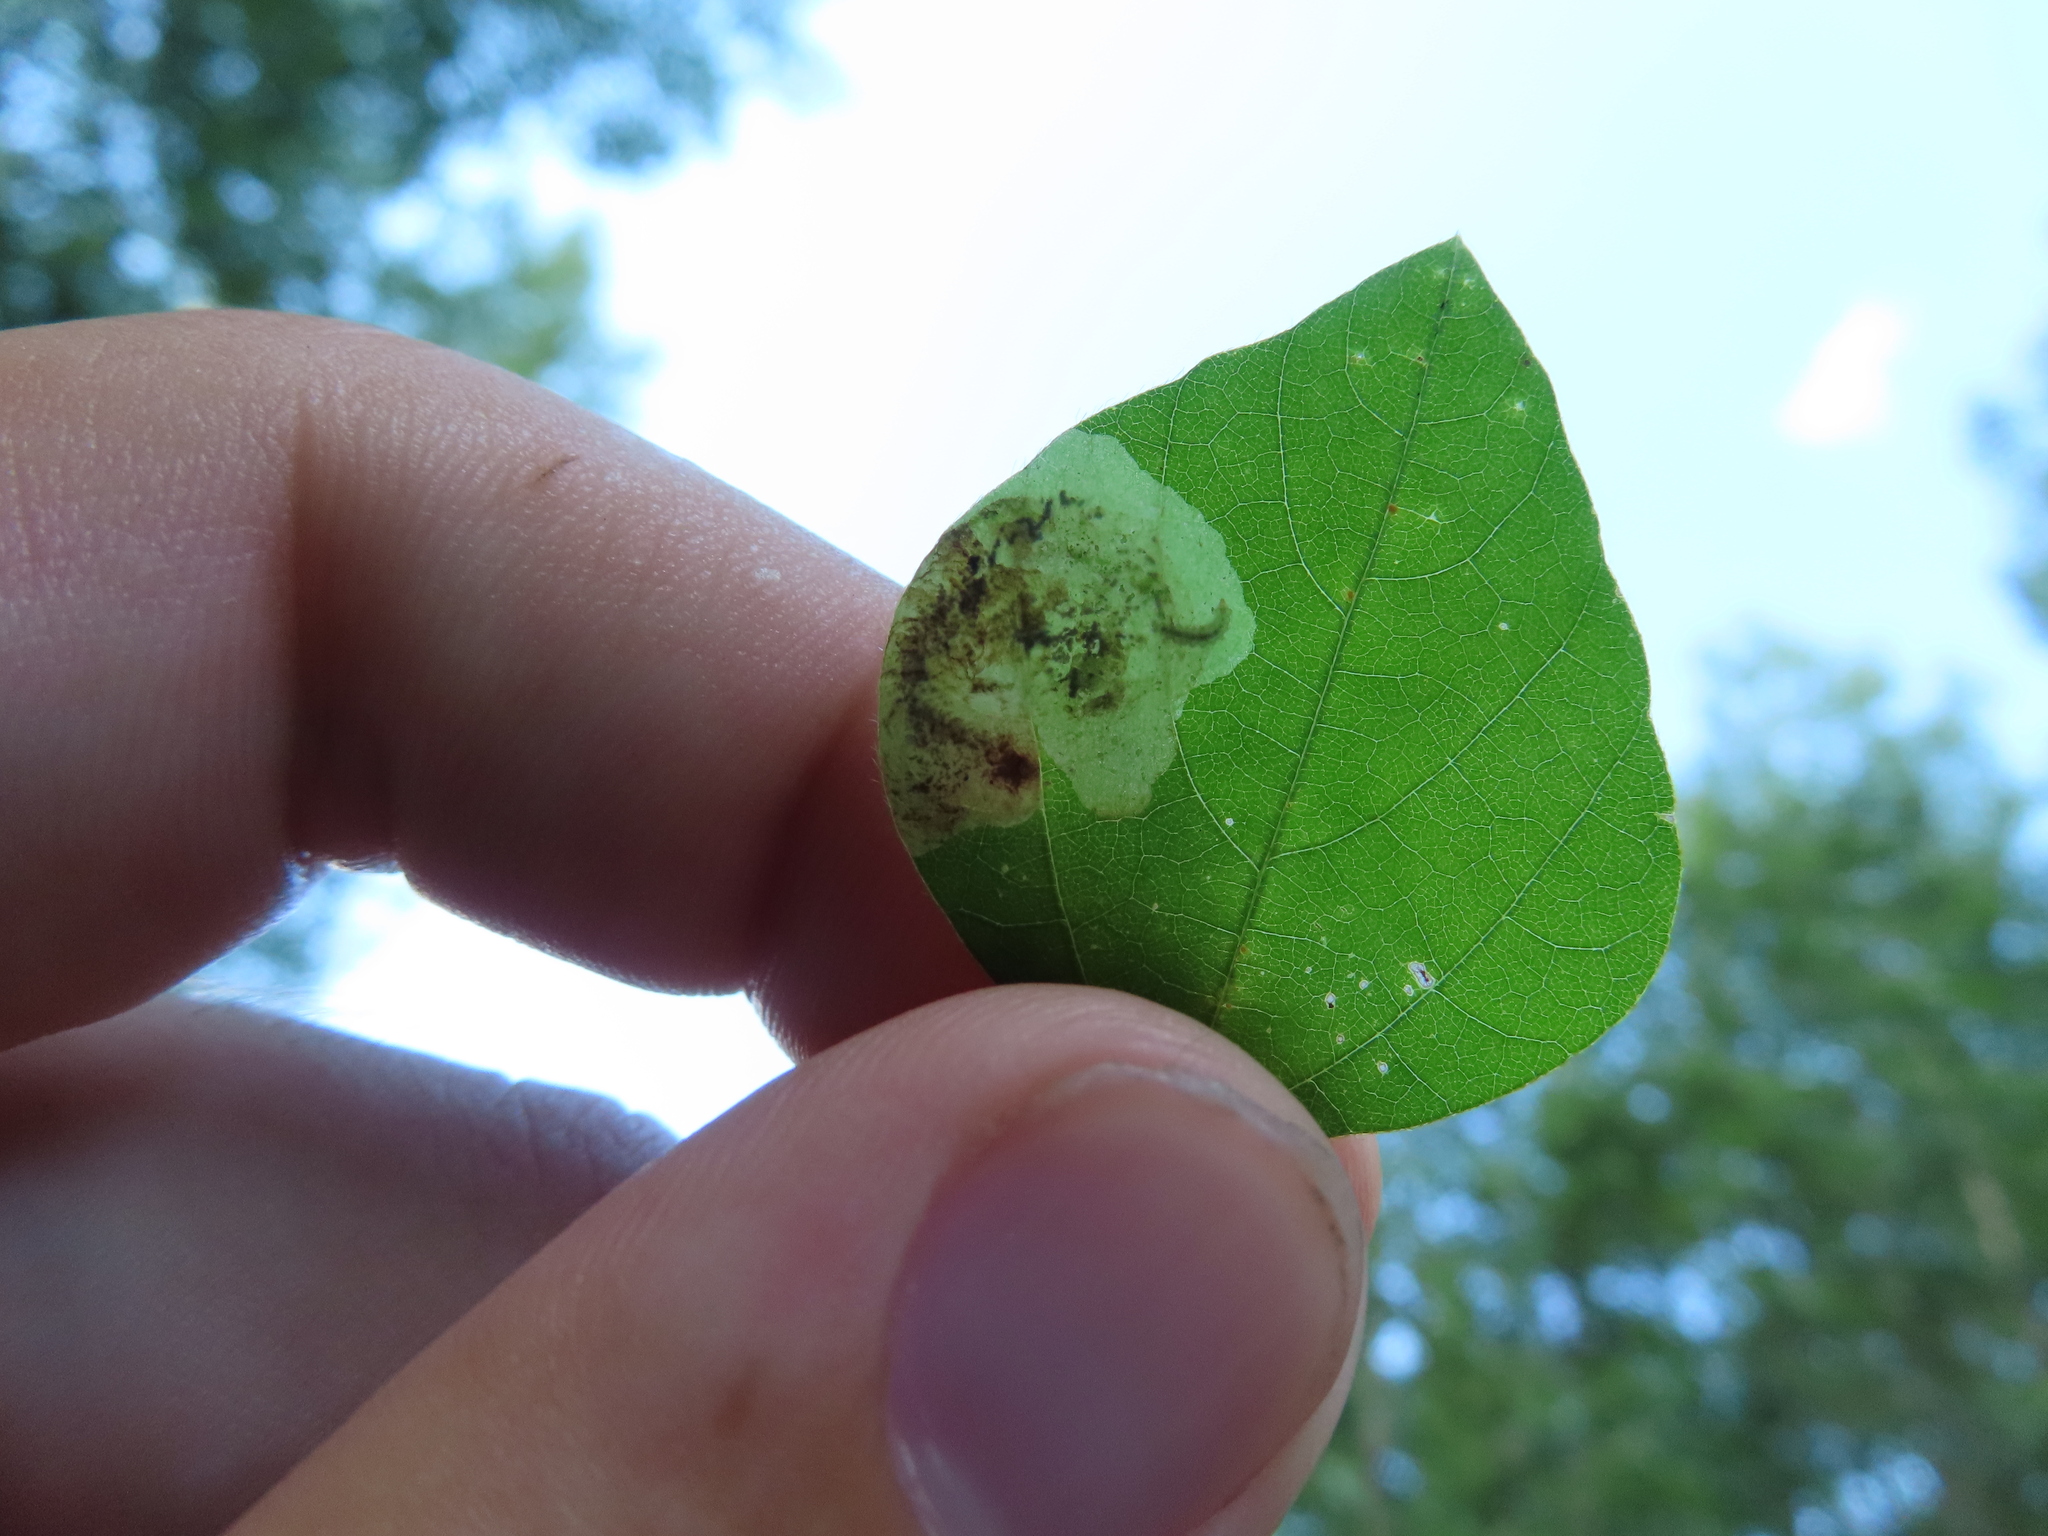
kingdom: Animalia
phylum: Arthropoda
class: Insecta
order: Lepidoptera
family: Gracillariidae
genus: Leucanthiza
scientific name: Leucanthiza amphicarpeaefoliella
